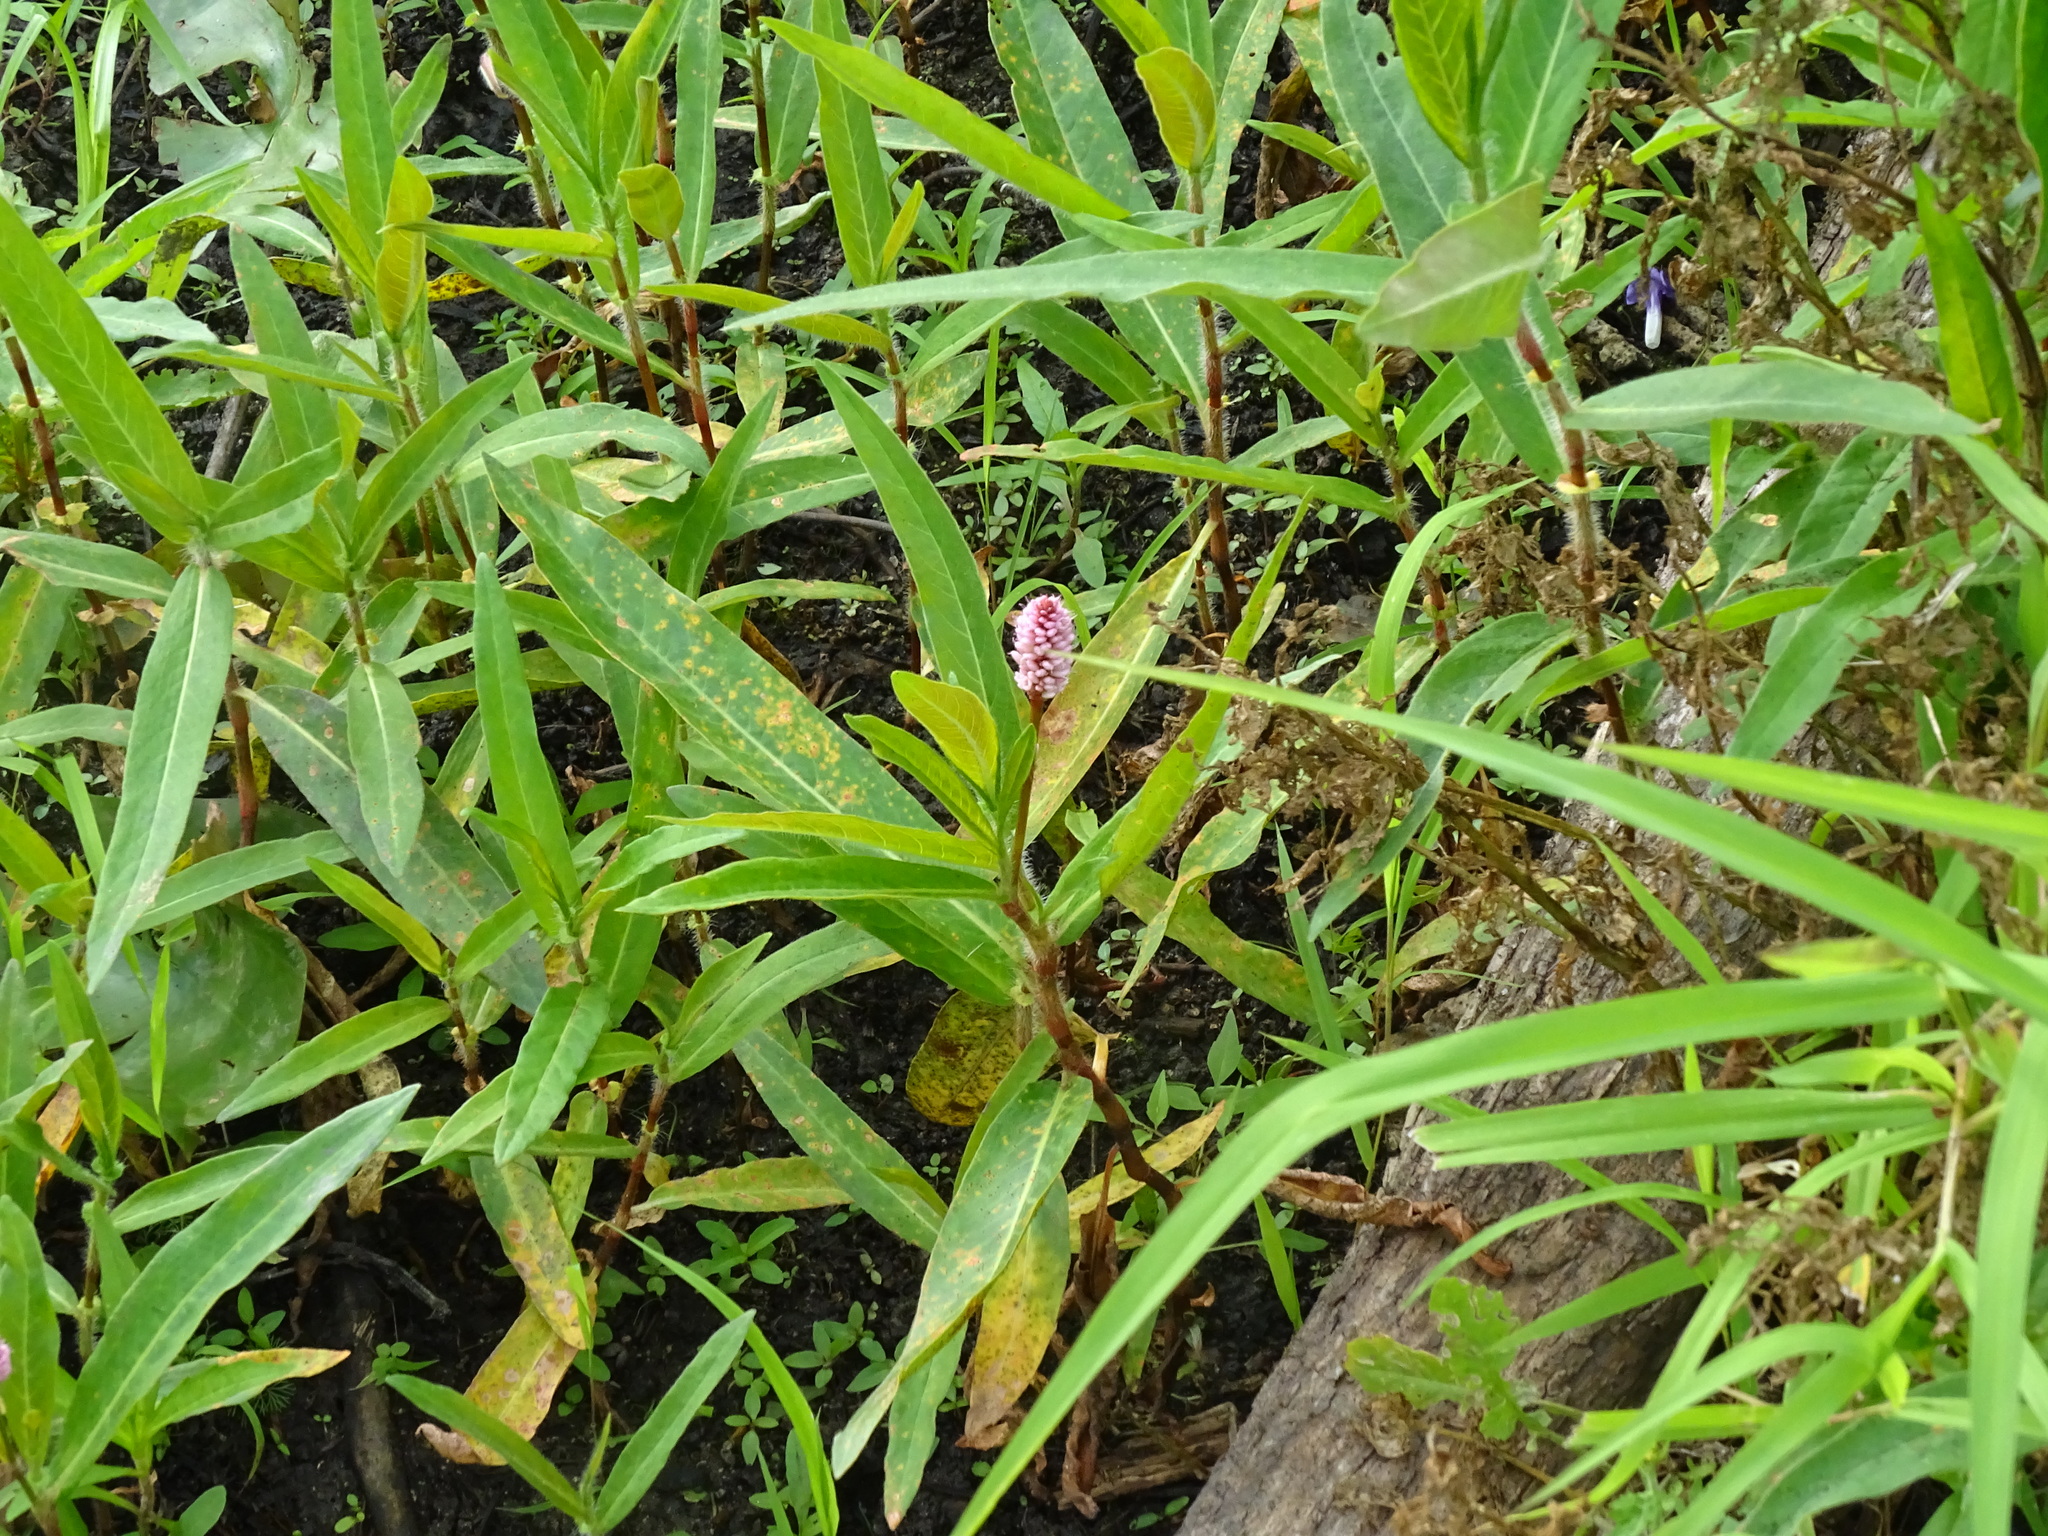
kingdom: Plantae
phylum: Tracheophyta
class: Magnoliopsida
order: Caryophyllales
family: Polygonaceae
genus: Persicaria
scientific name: Persicaria amphibia
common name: Amphibious bistort
